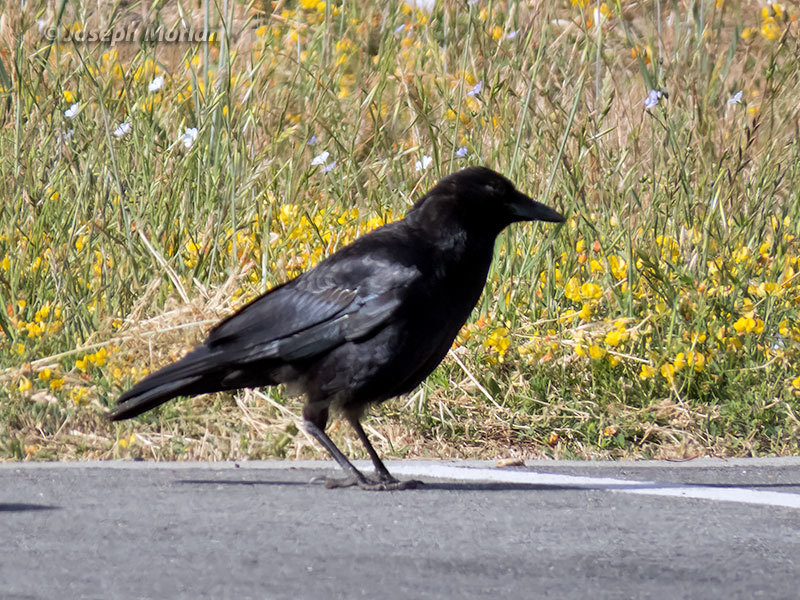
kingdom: Animalia
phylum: Chordata
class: Aves
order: Passeriformes
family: Corvidae
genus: Corvus
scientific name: Corvus brachyrhynchos
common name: American crow
